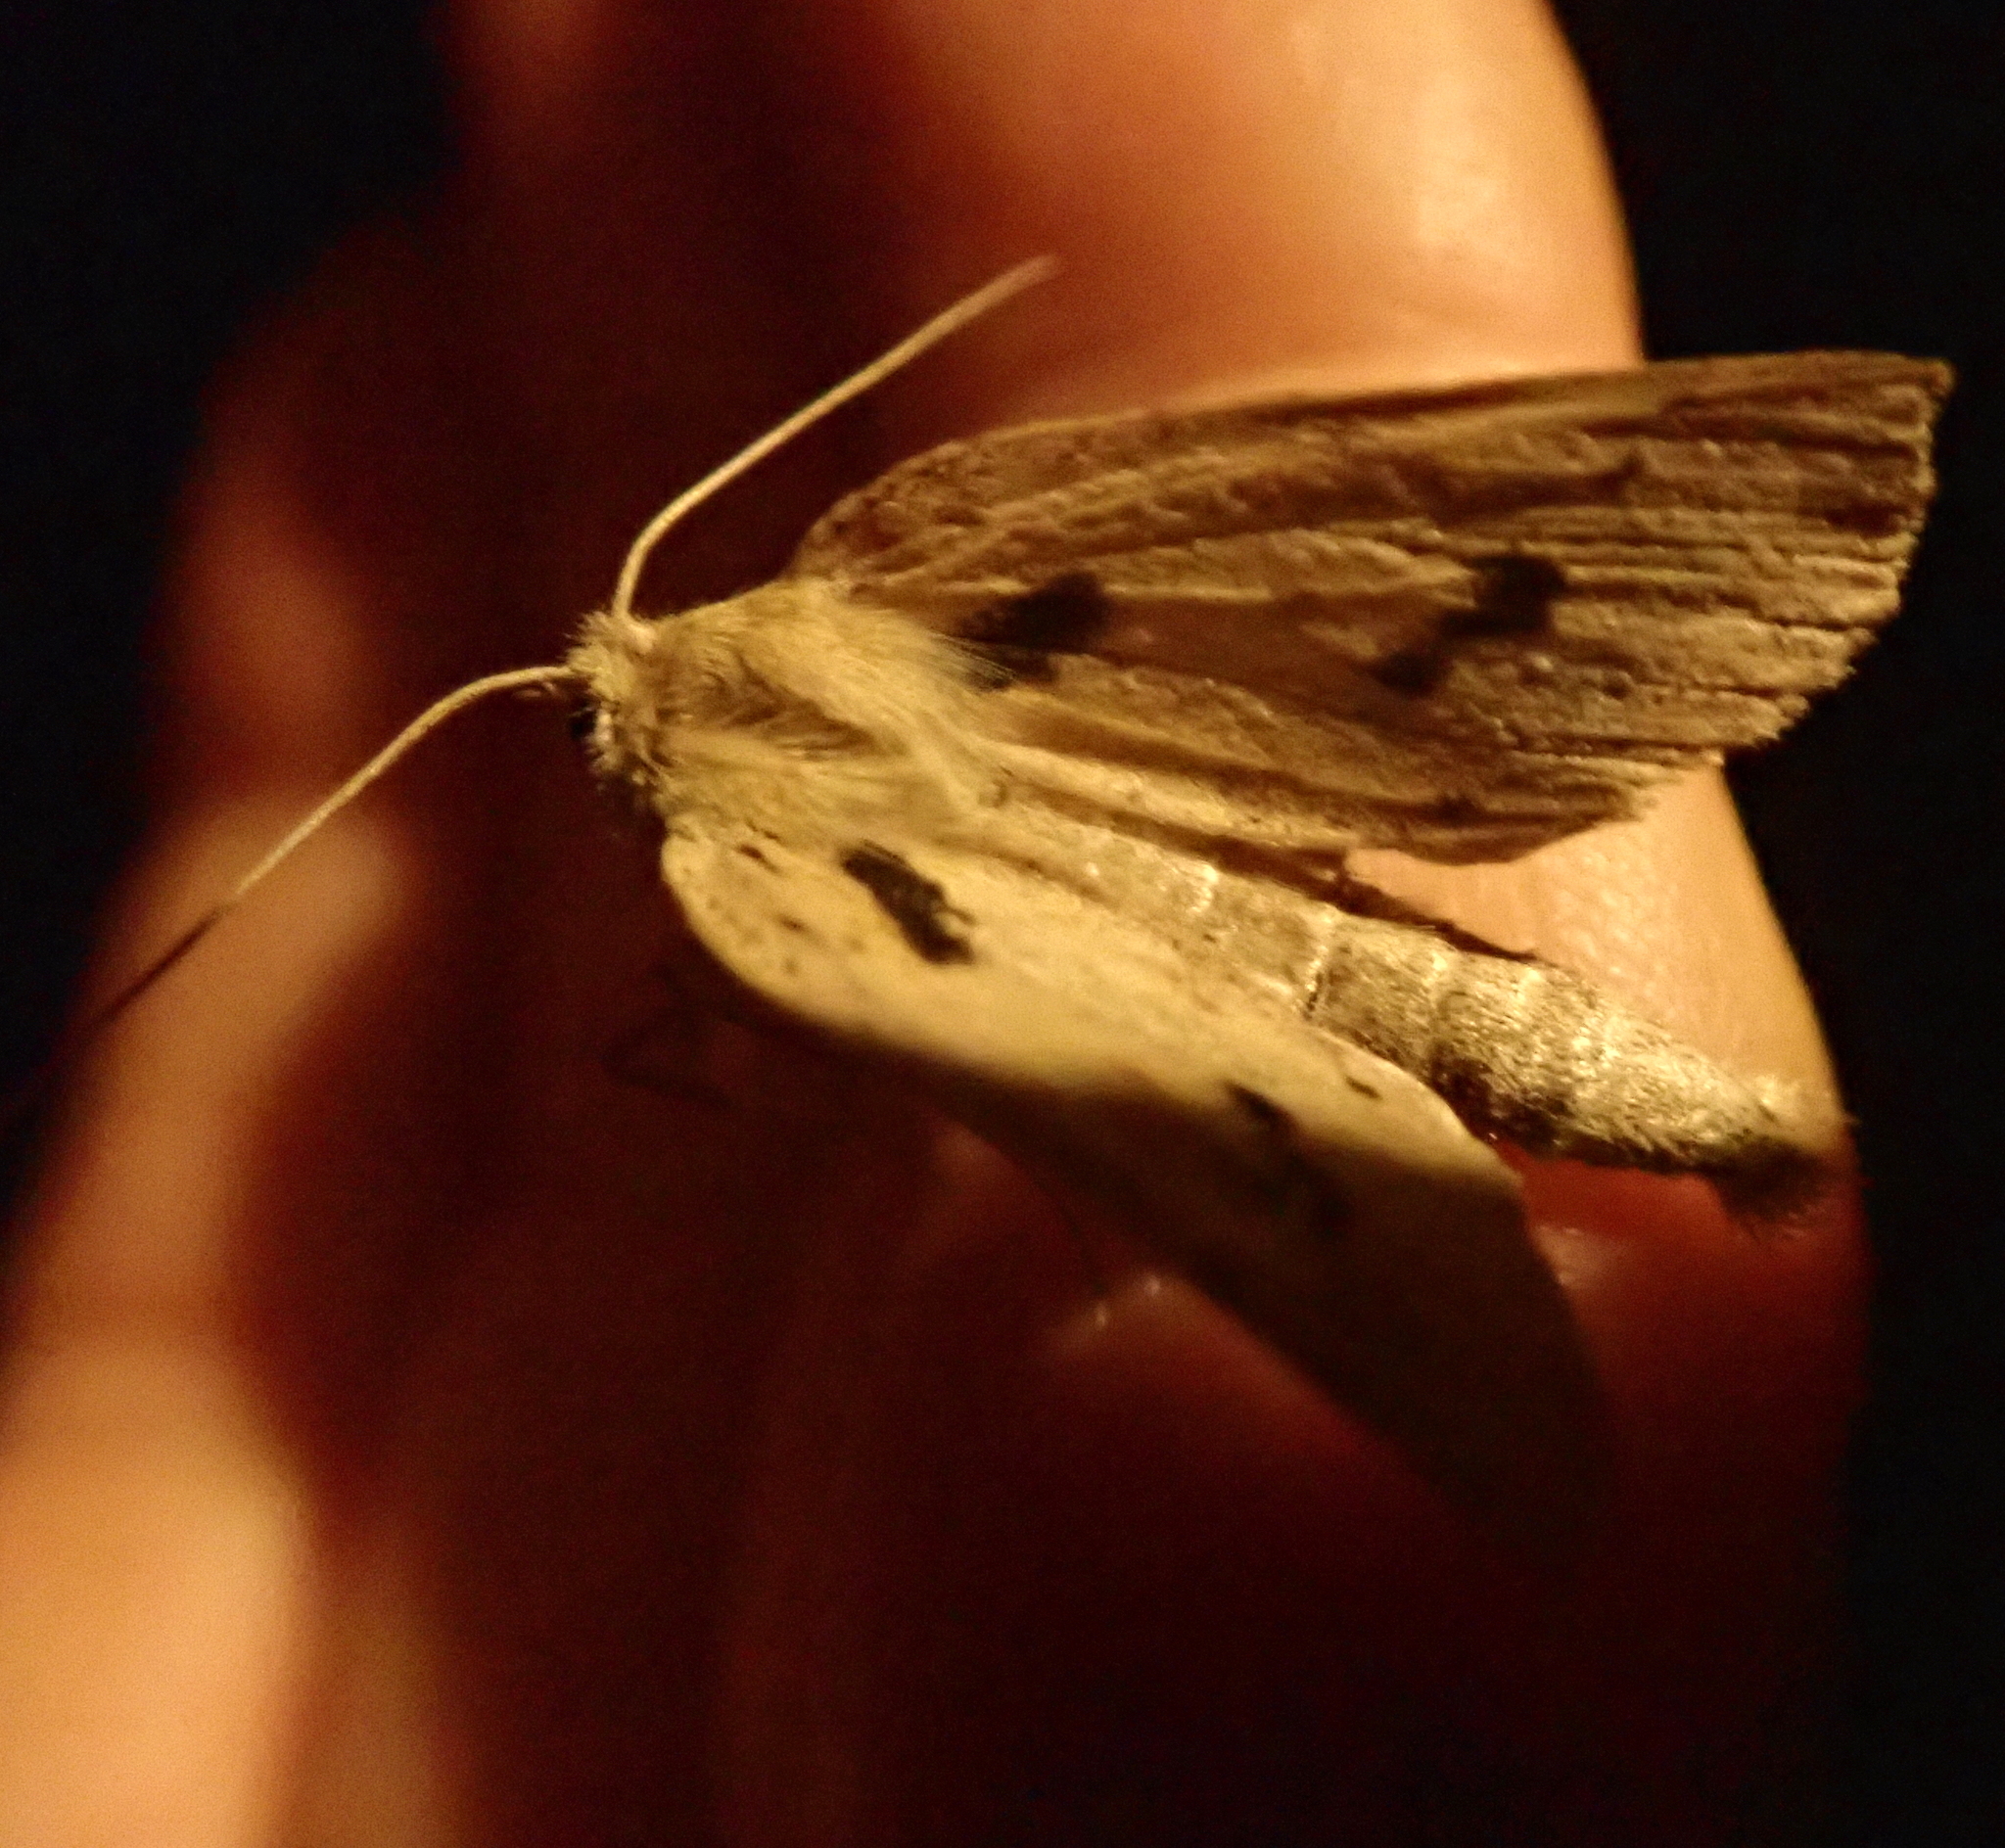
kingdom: Animalia
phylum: Arthropoda
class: Insecta
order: Lepidoptera
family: Geometridae
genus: Declana
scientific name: Declana leptomera
